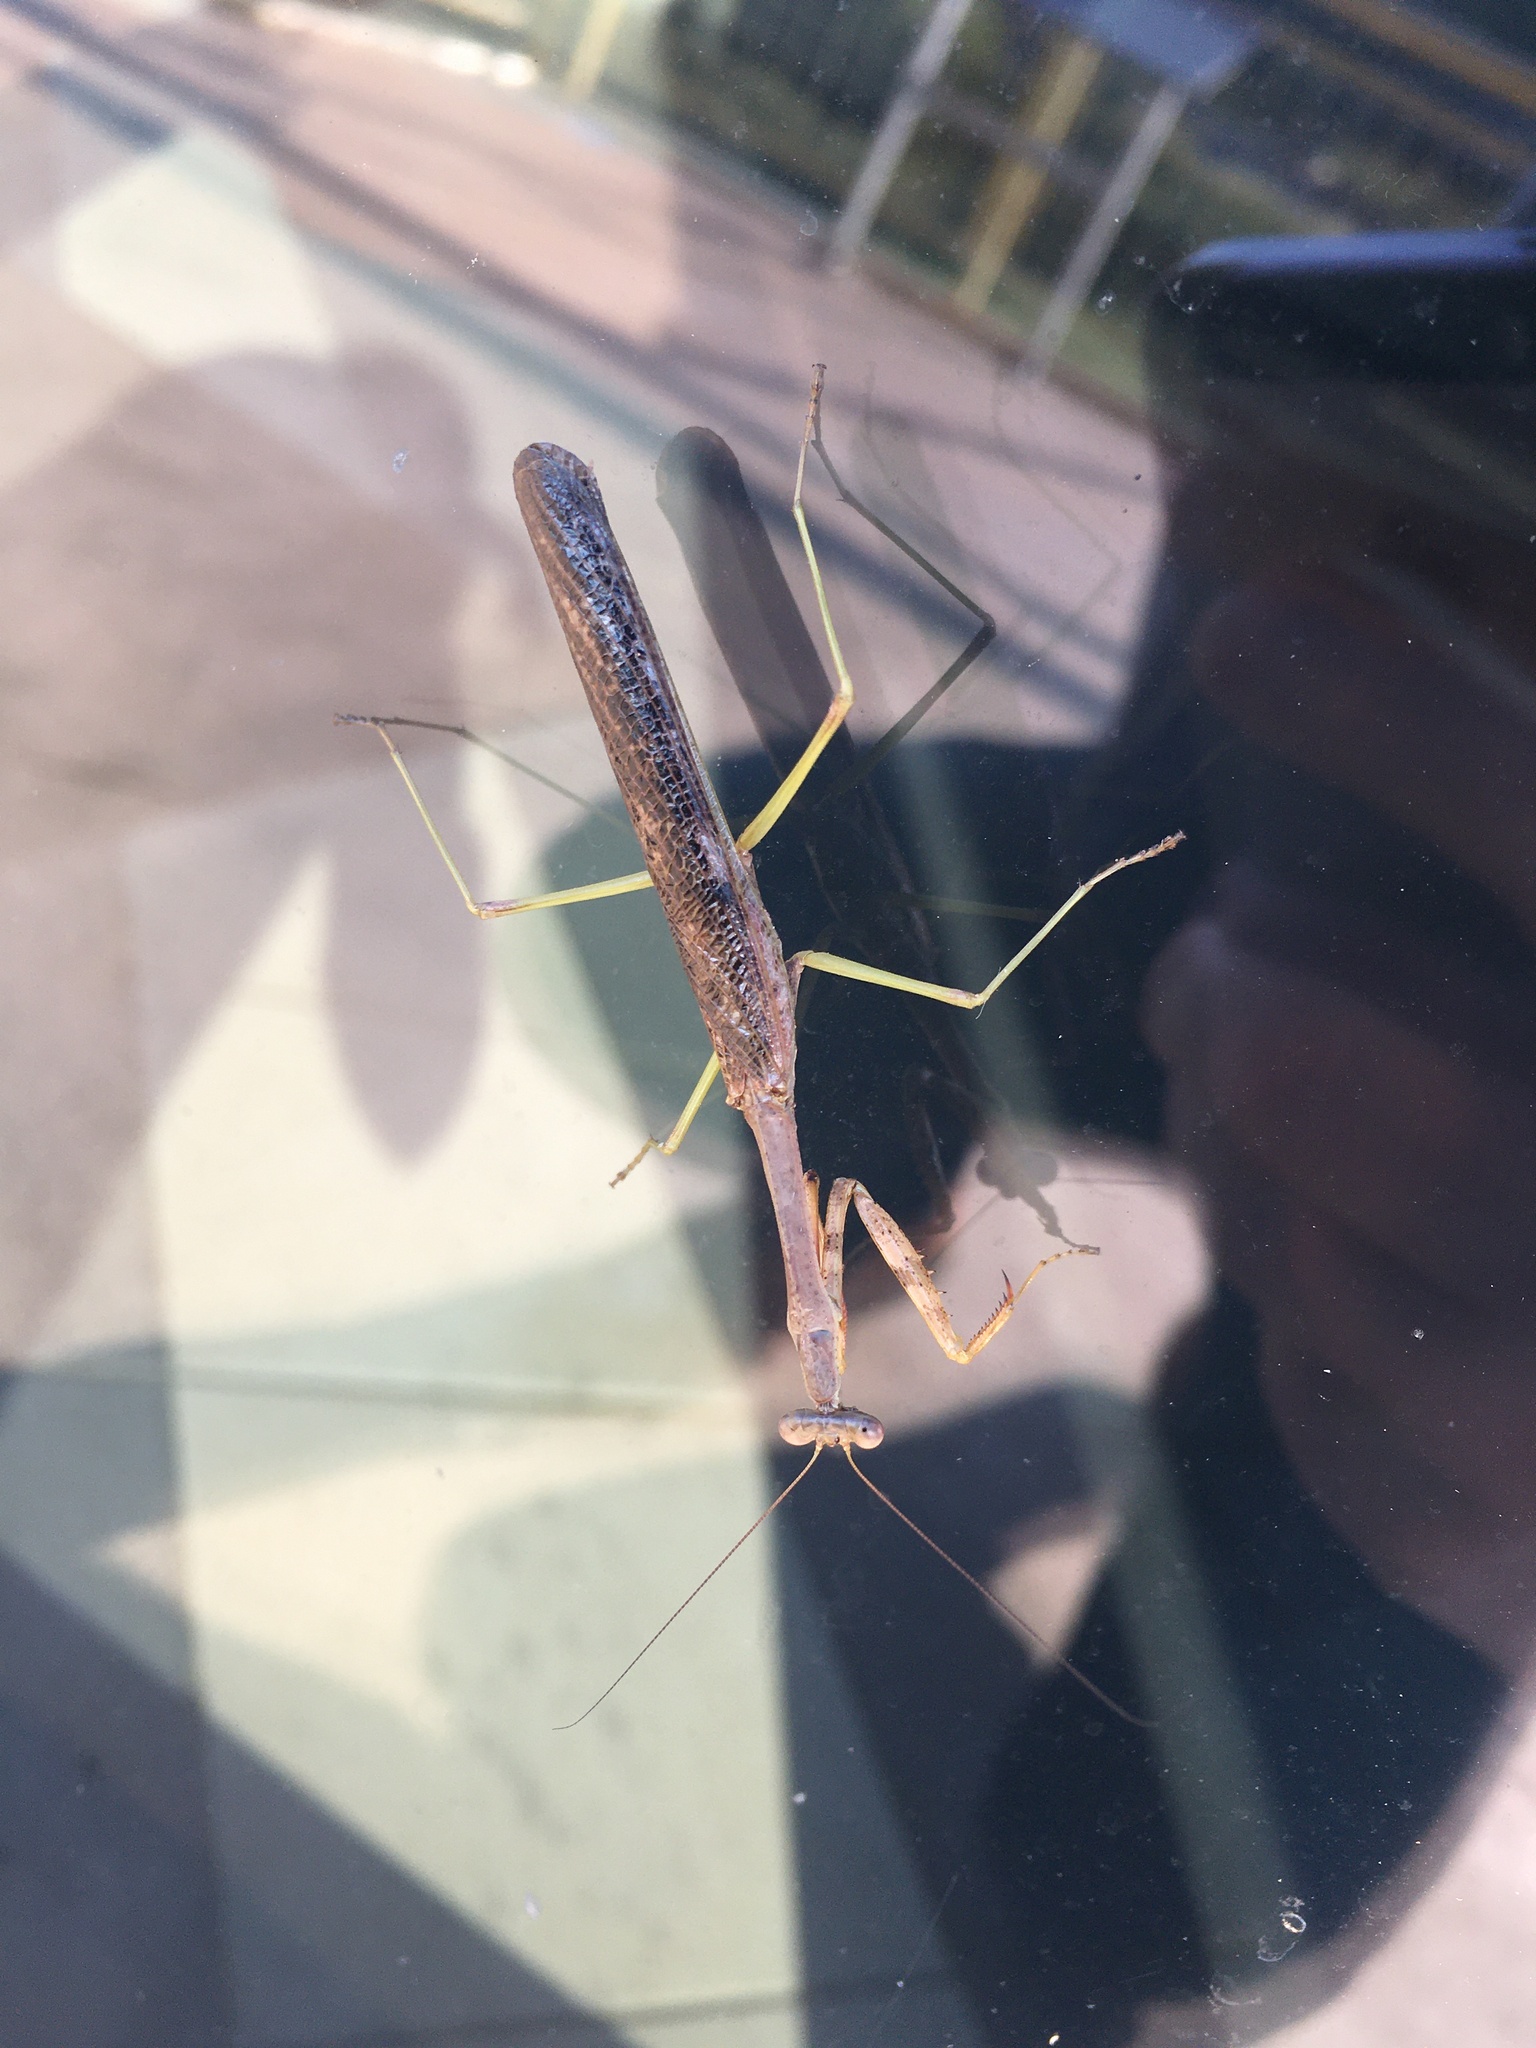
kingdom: Animalia
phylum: Arthropoda
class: Insecta
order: Mantodea
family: Mantidae
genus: Stagmomantis
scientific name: Stagmomantis carolina
